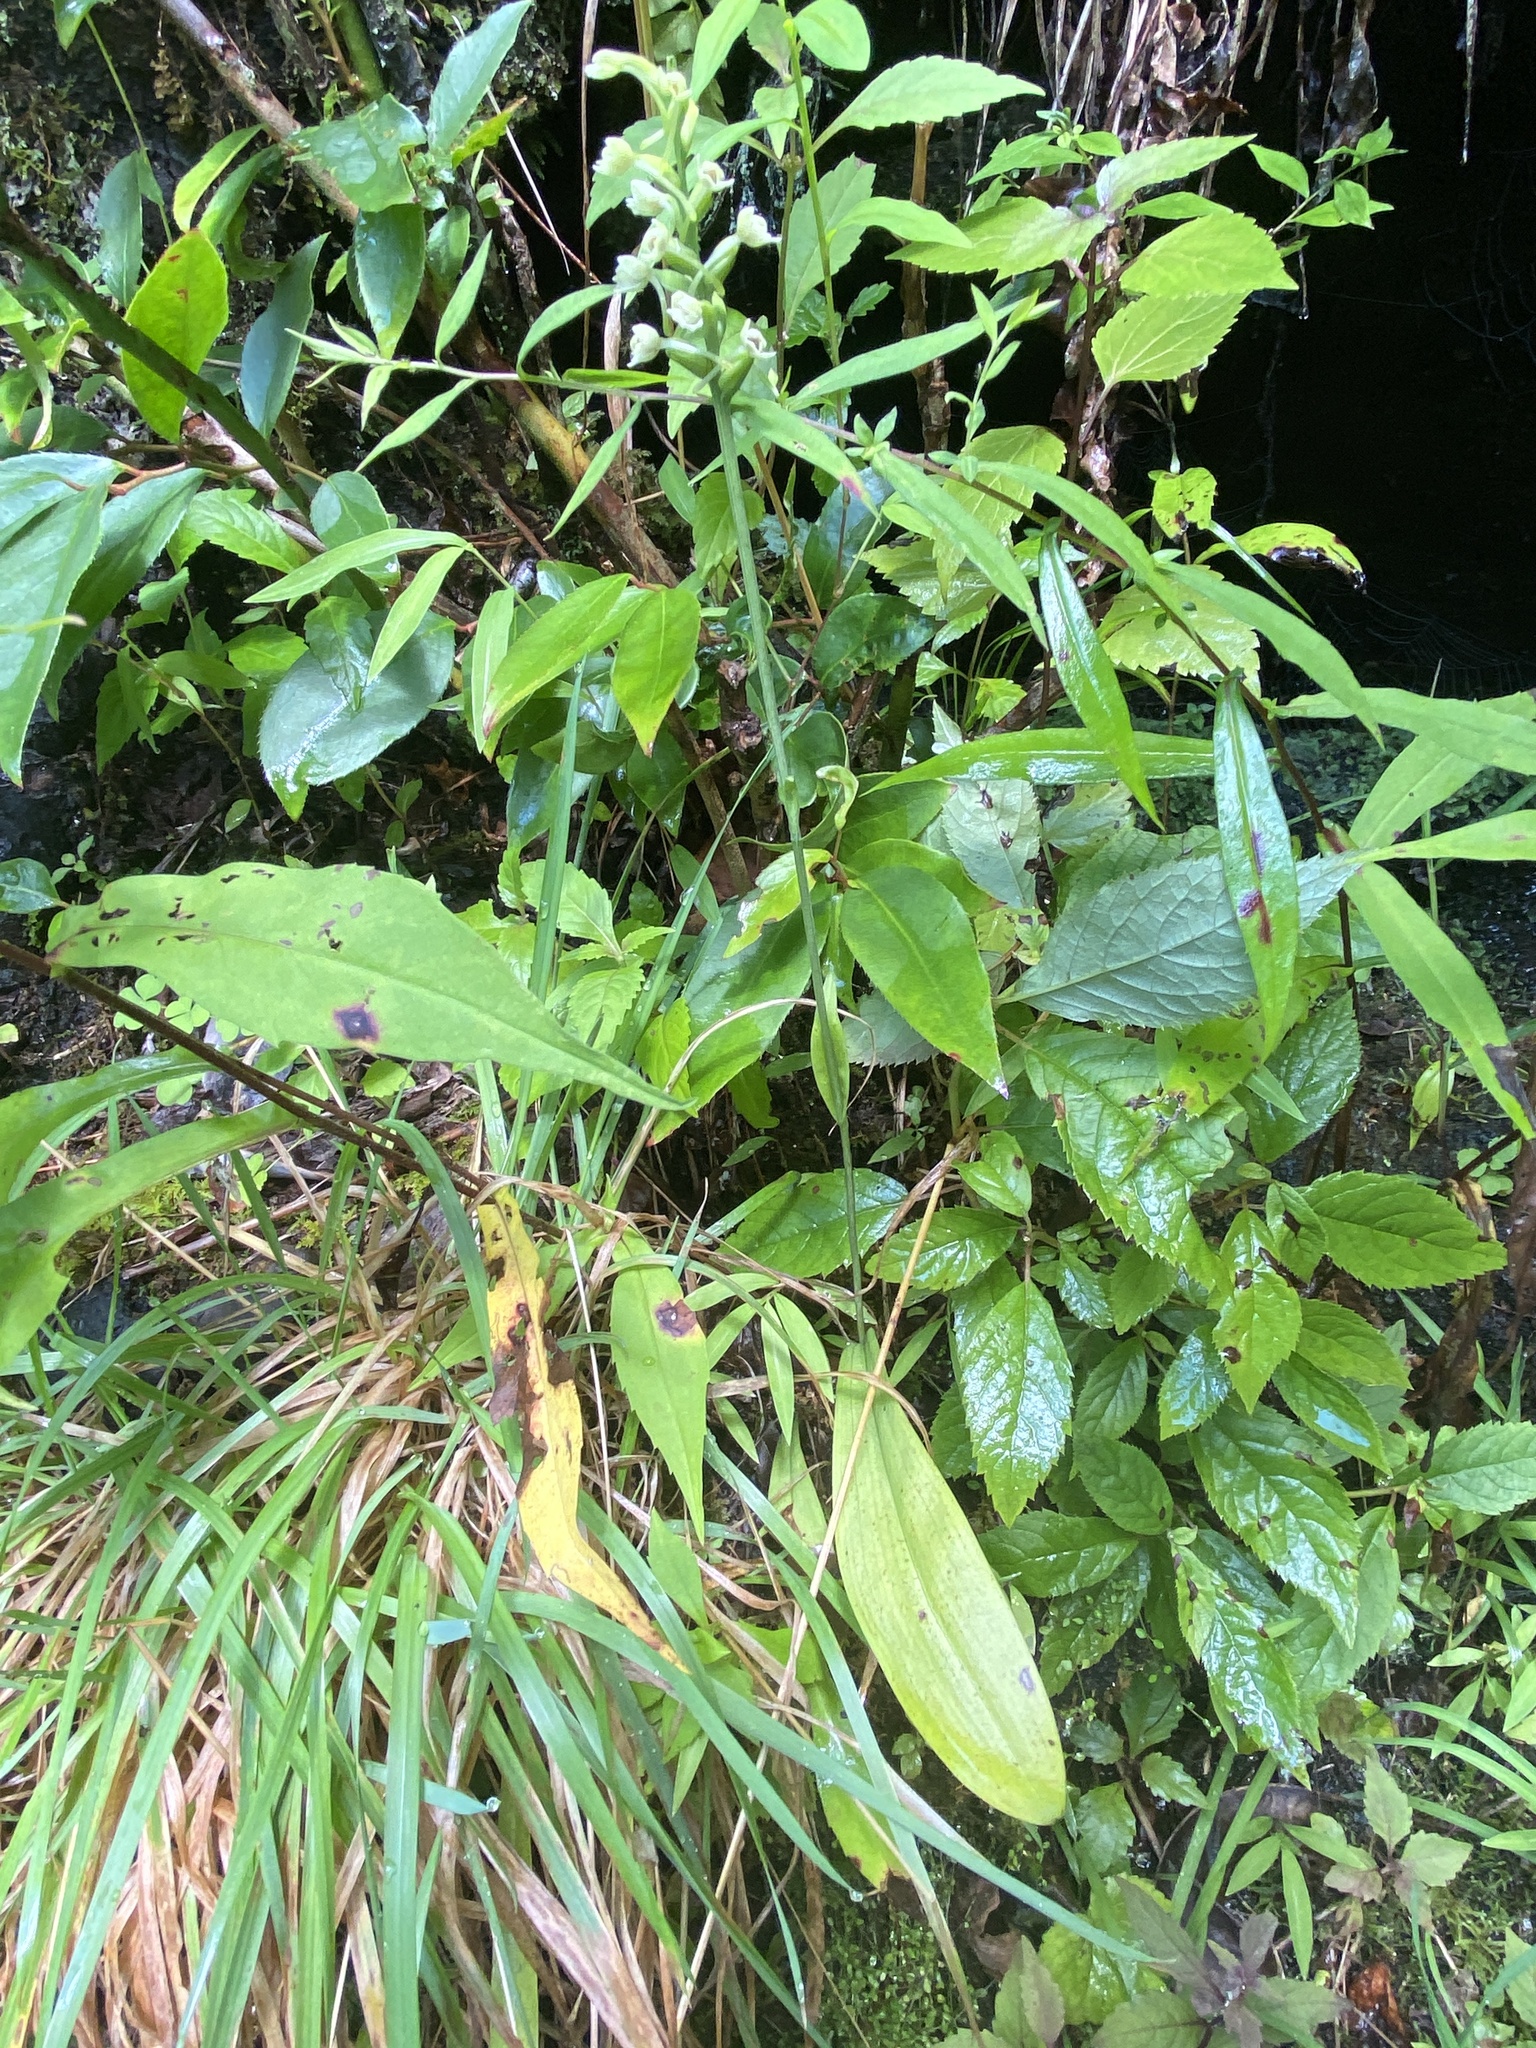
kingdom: Plantae
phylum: Tracheophyta
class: Liliopsida
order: Asparagales
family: Orchidaceae
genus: Platanthera
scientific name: Platanthera clavellata
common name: Club-spur orchid
